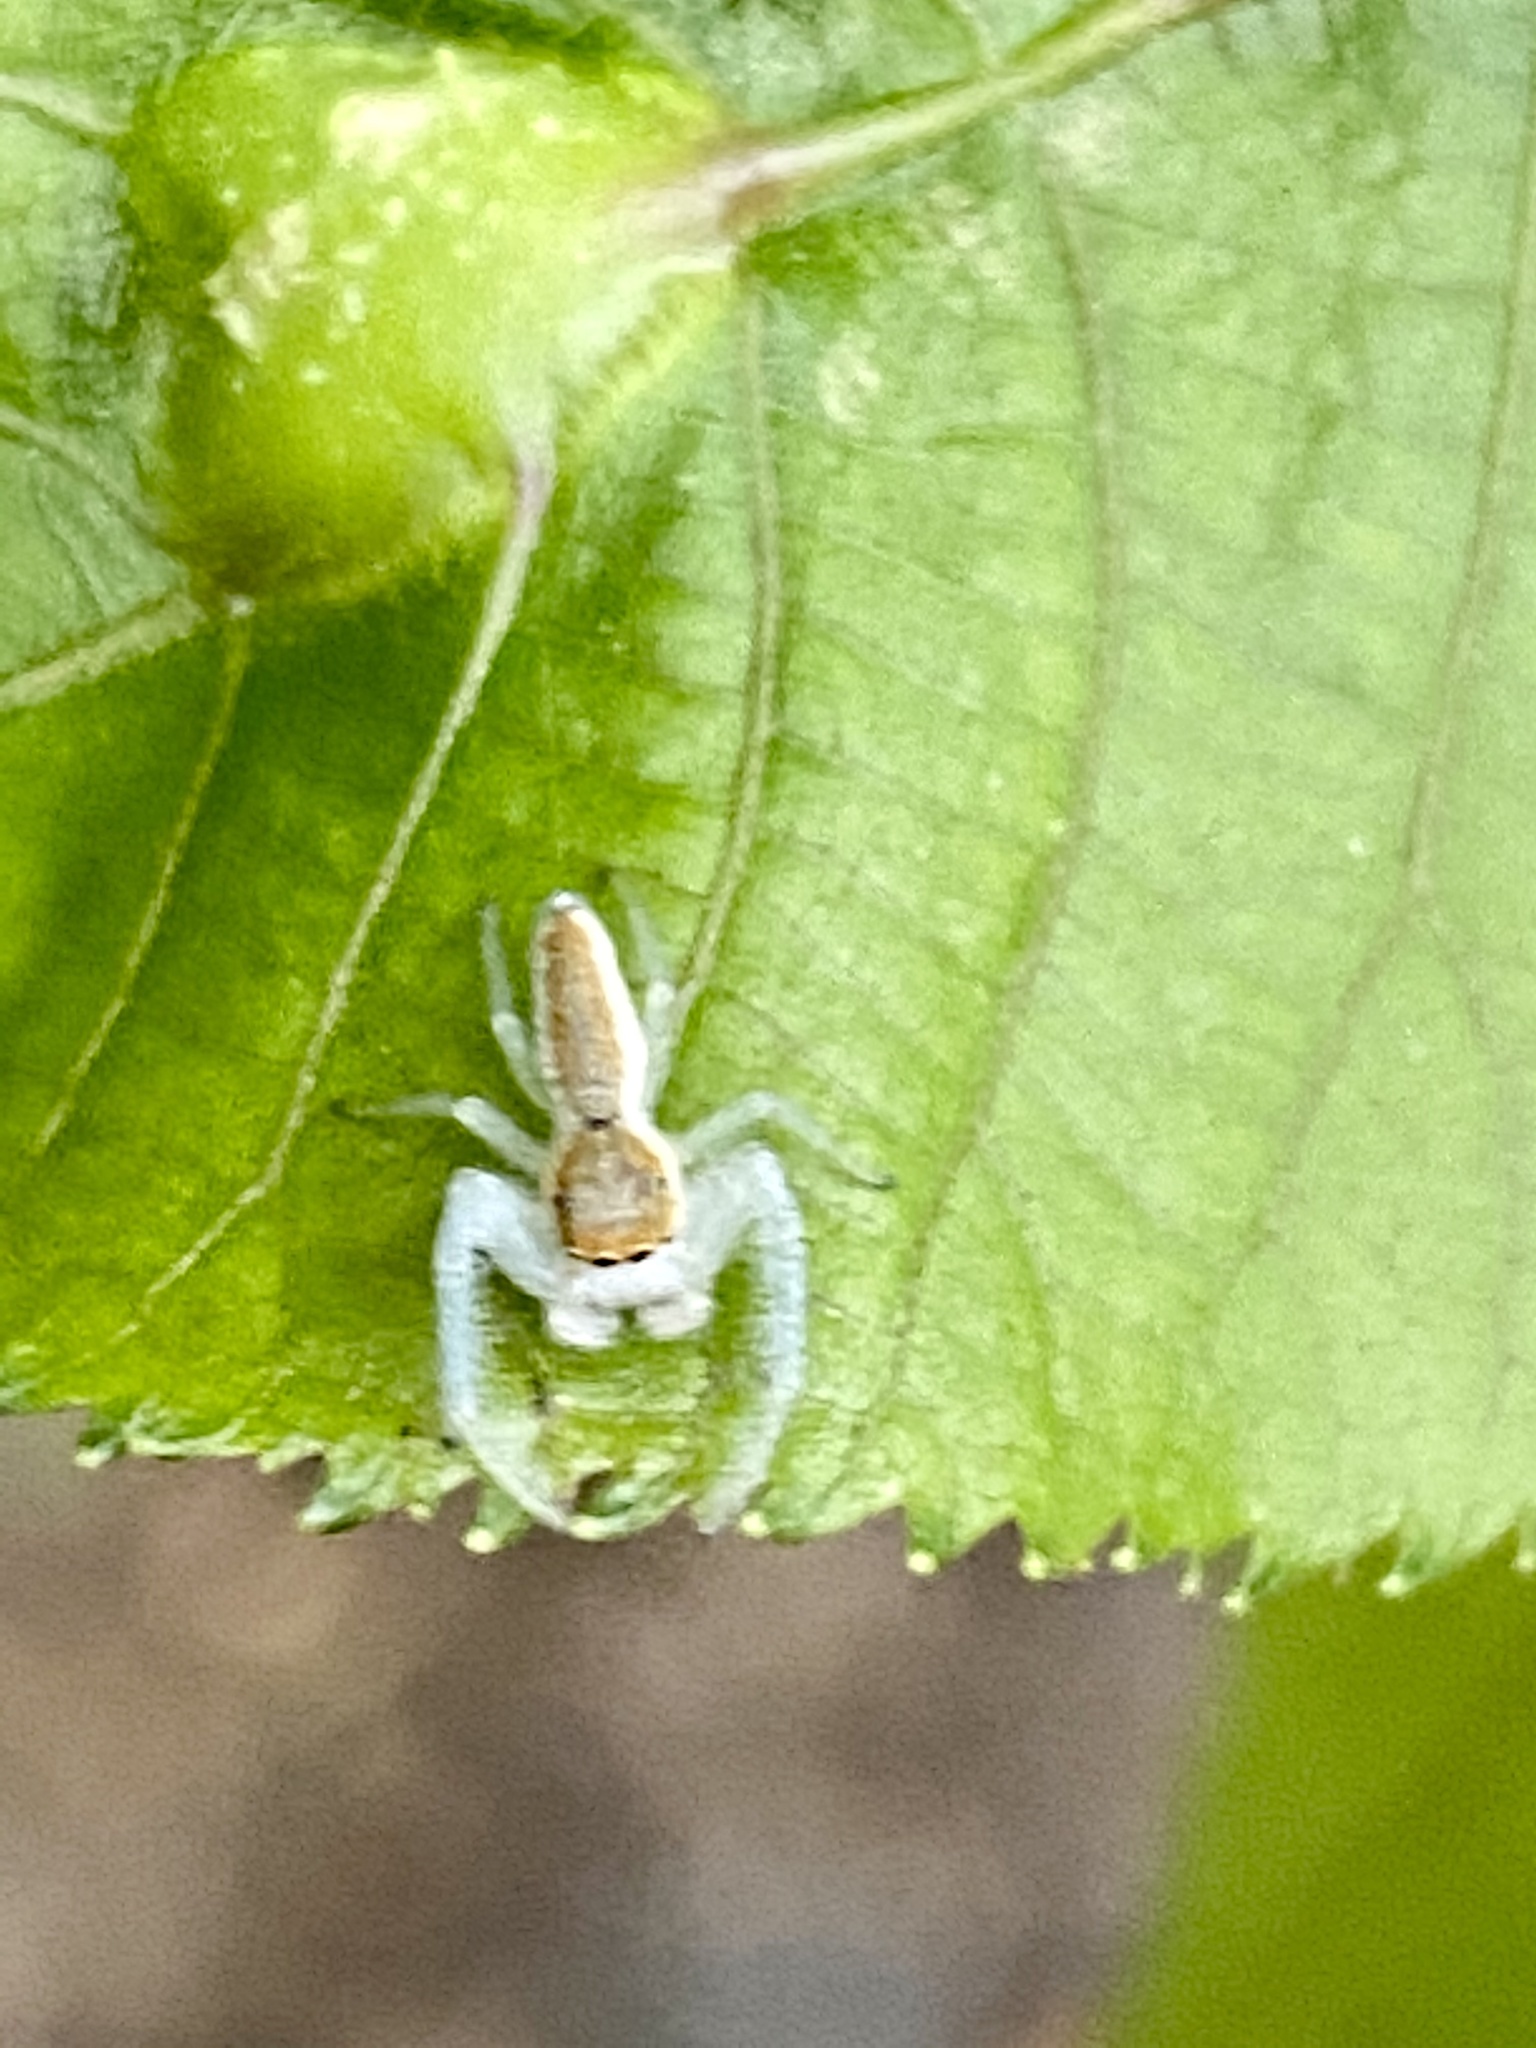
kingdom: Animalia
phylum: Arthropoda
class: Arachnida
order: Araneae
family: Salticidae
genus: Hentzia
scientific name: Hentzia mitrata
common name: White-jawed jumping spider
